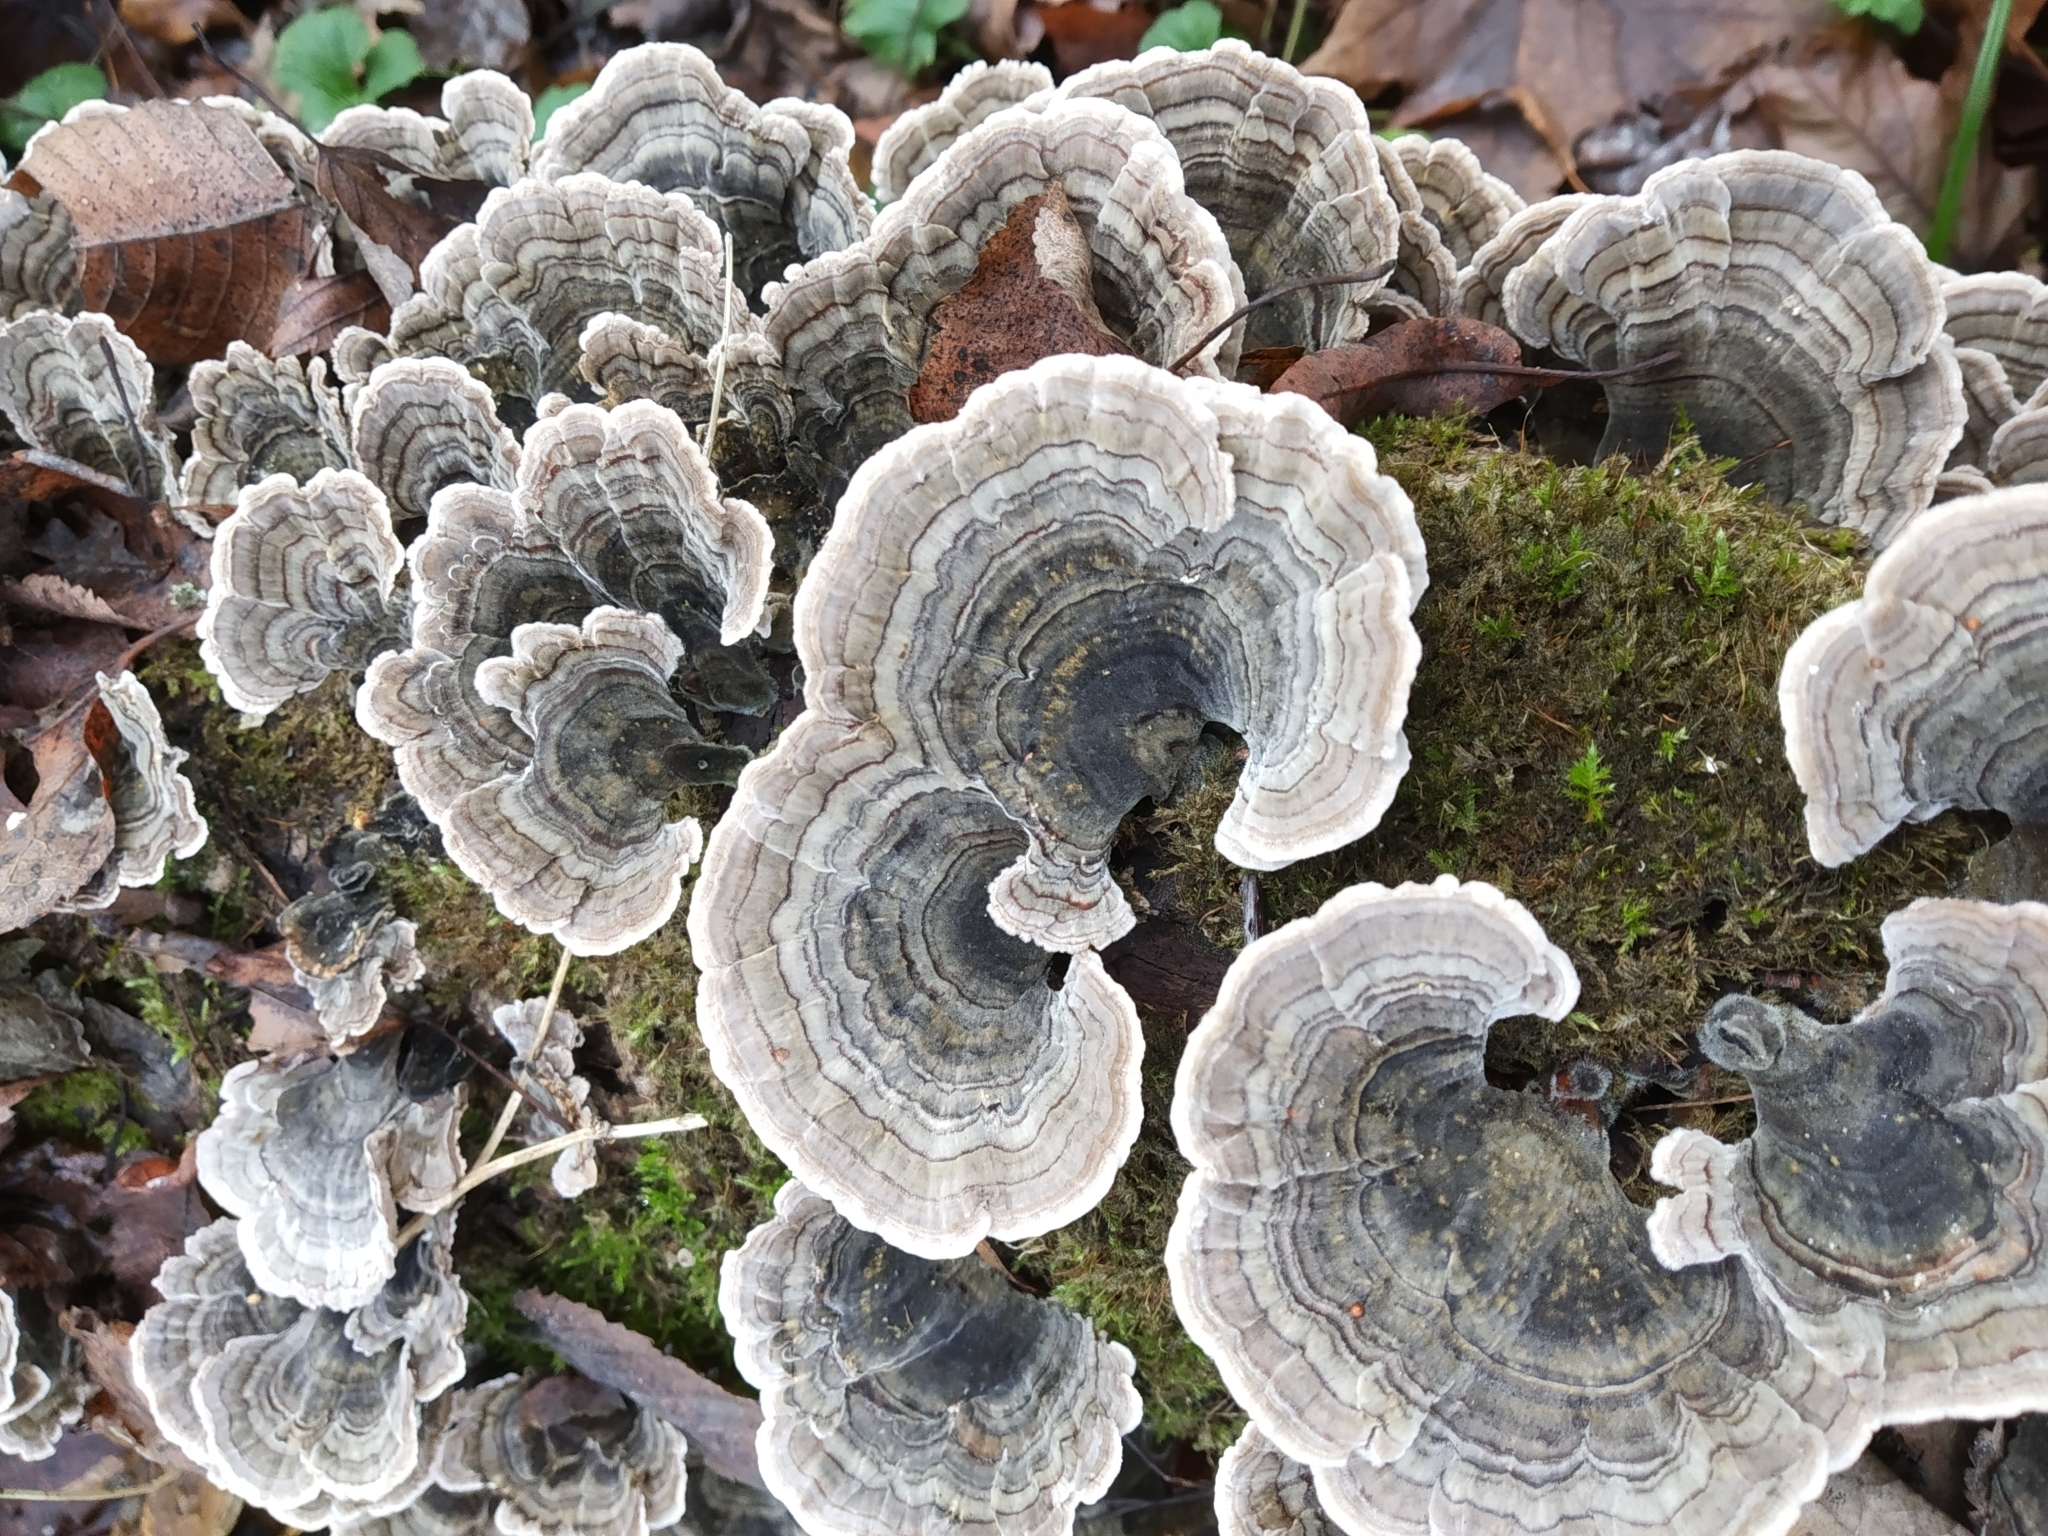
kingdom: Fungi
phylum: Basidiomycota
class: Agaricomycetes
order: Polyporales
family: Polyporaceae
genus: Trametes
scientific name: Trametes versicolor
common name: Turkeytail
